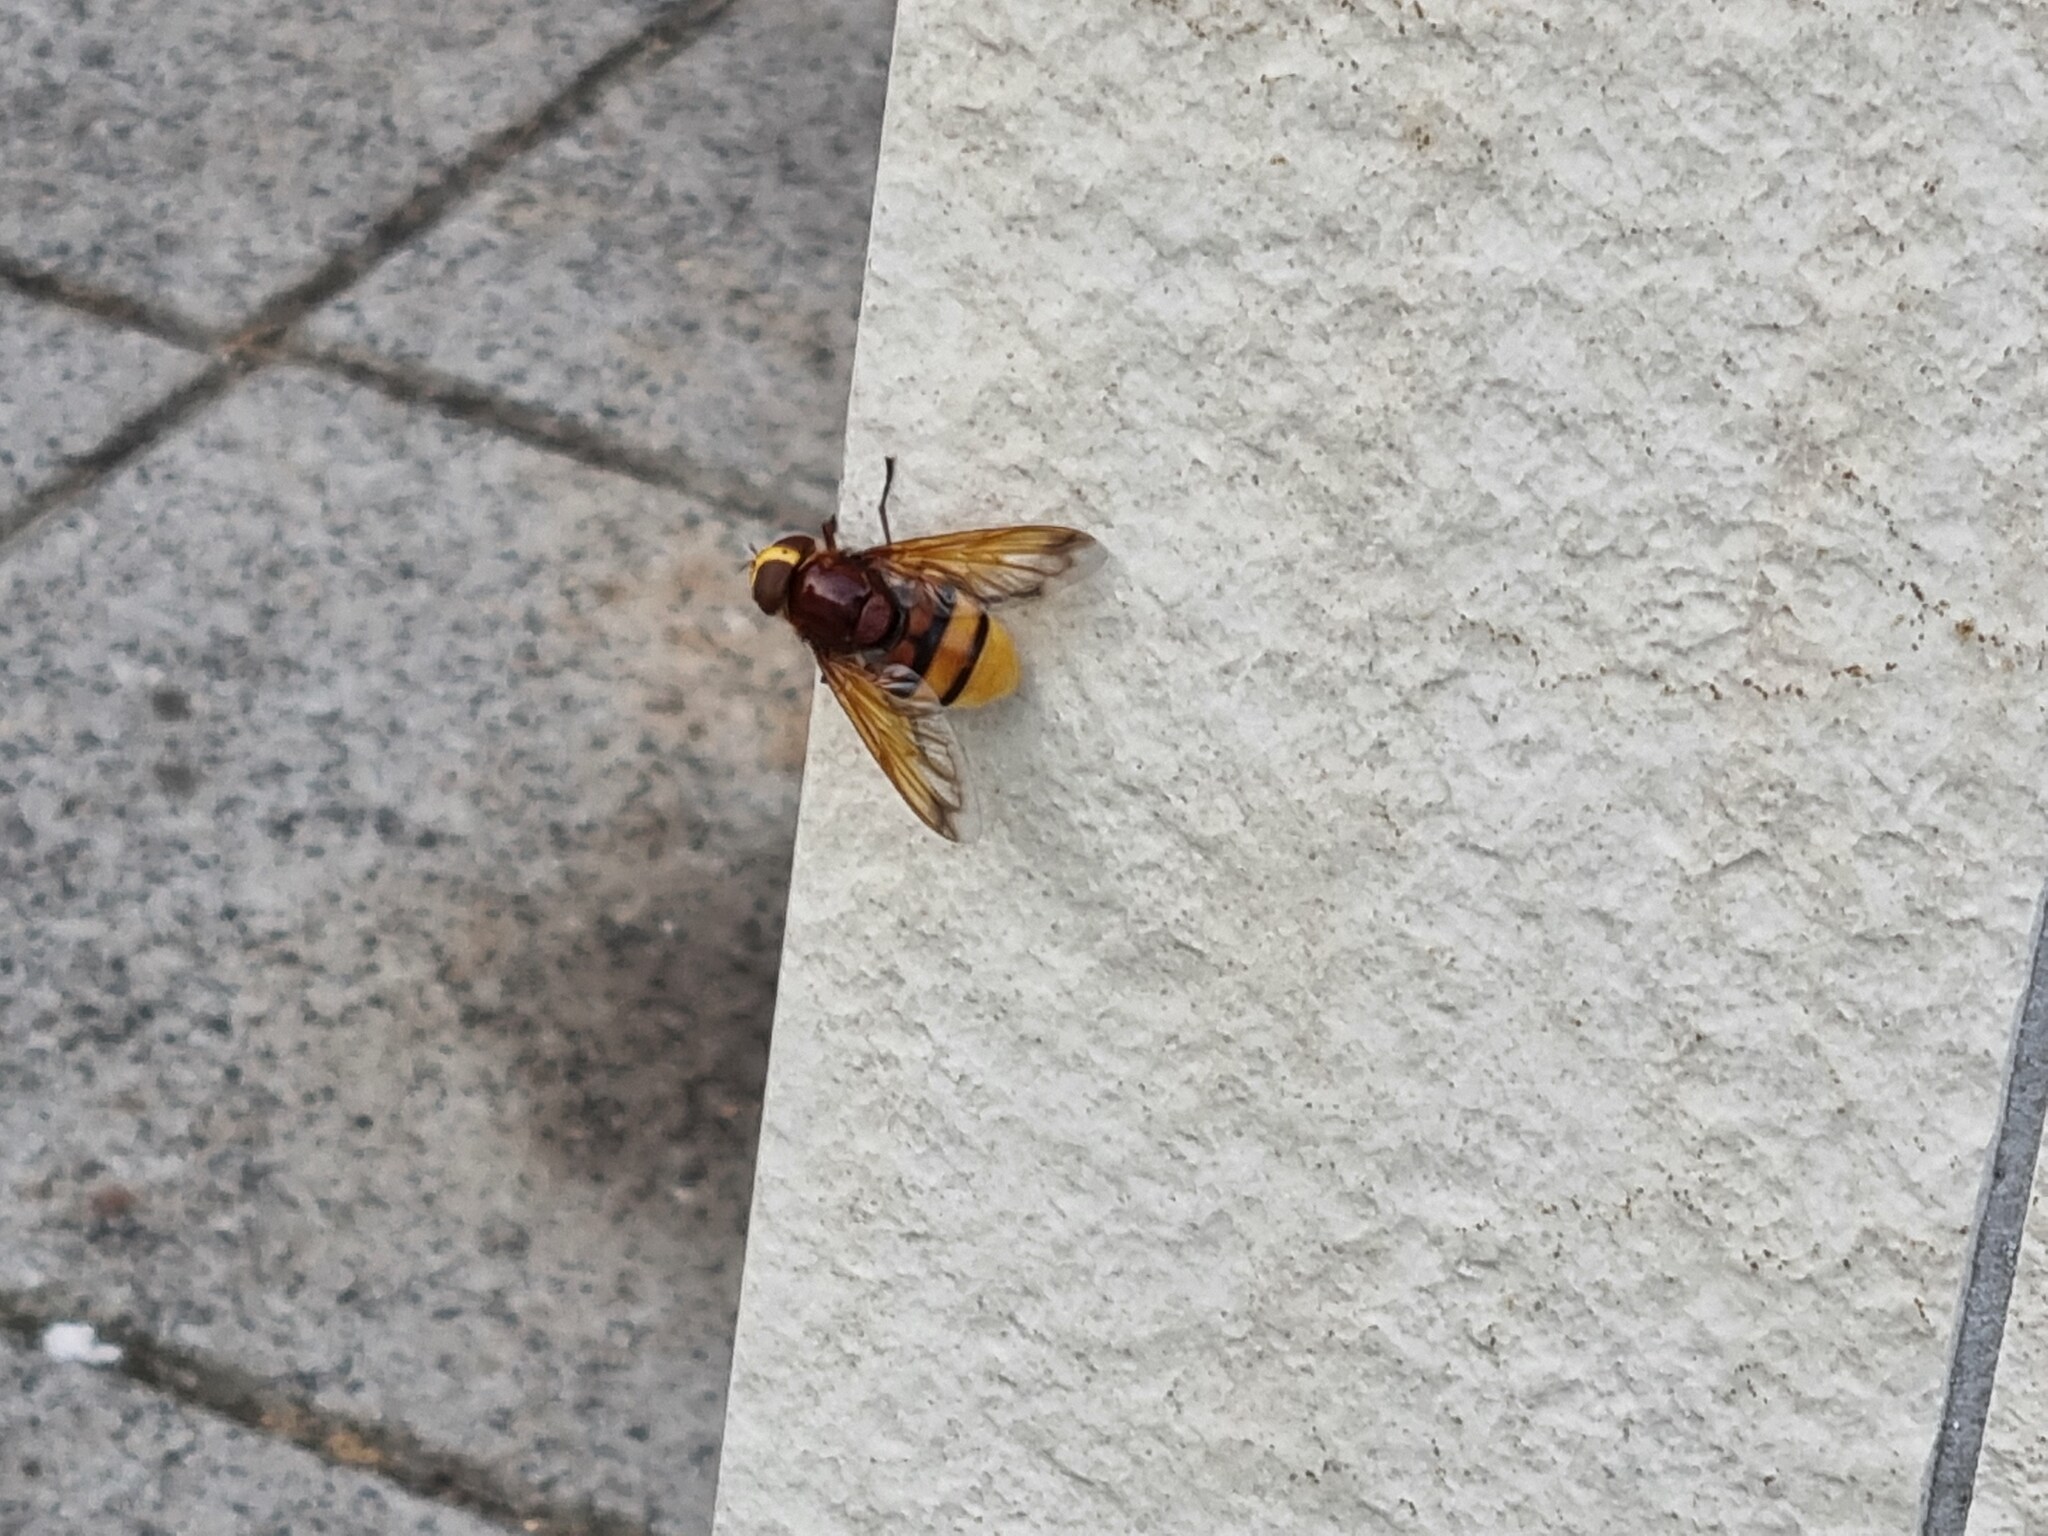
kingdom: Animalia
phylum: Arthropoda
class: Insecta
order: Diptera
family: Syrphidae
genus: Volucella
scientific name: Volucella zonaria
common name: Hornet hoverfly
